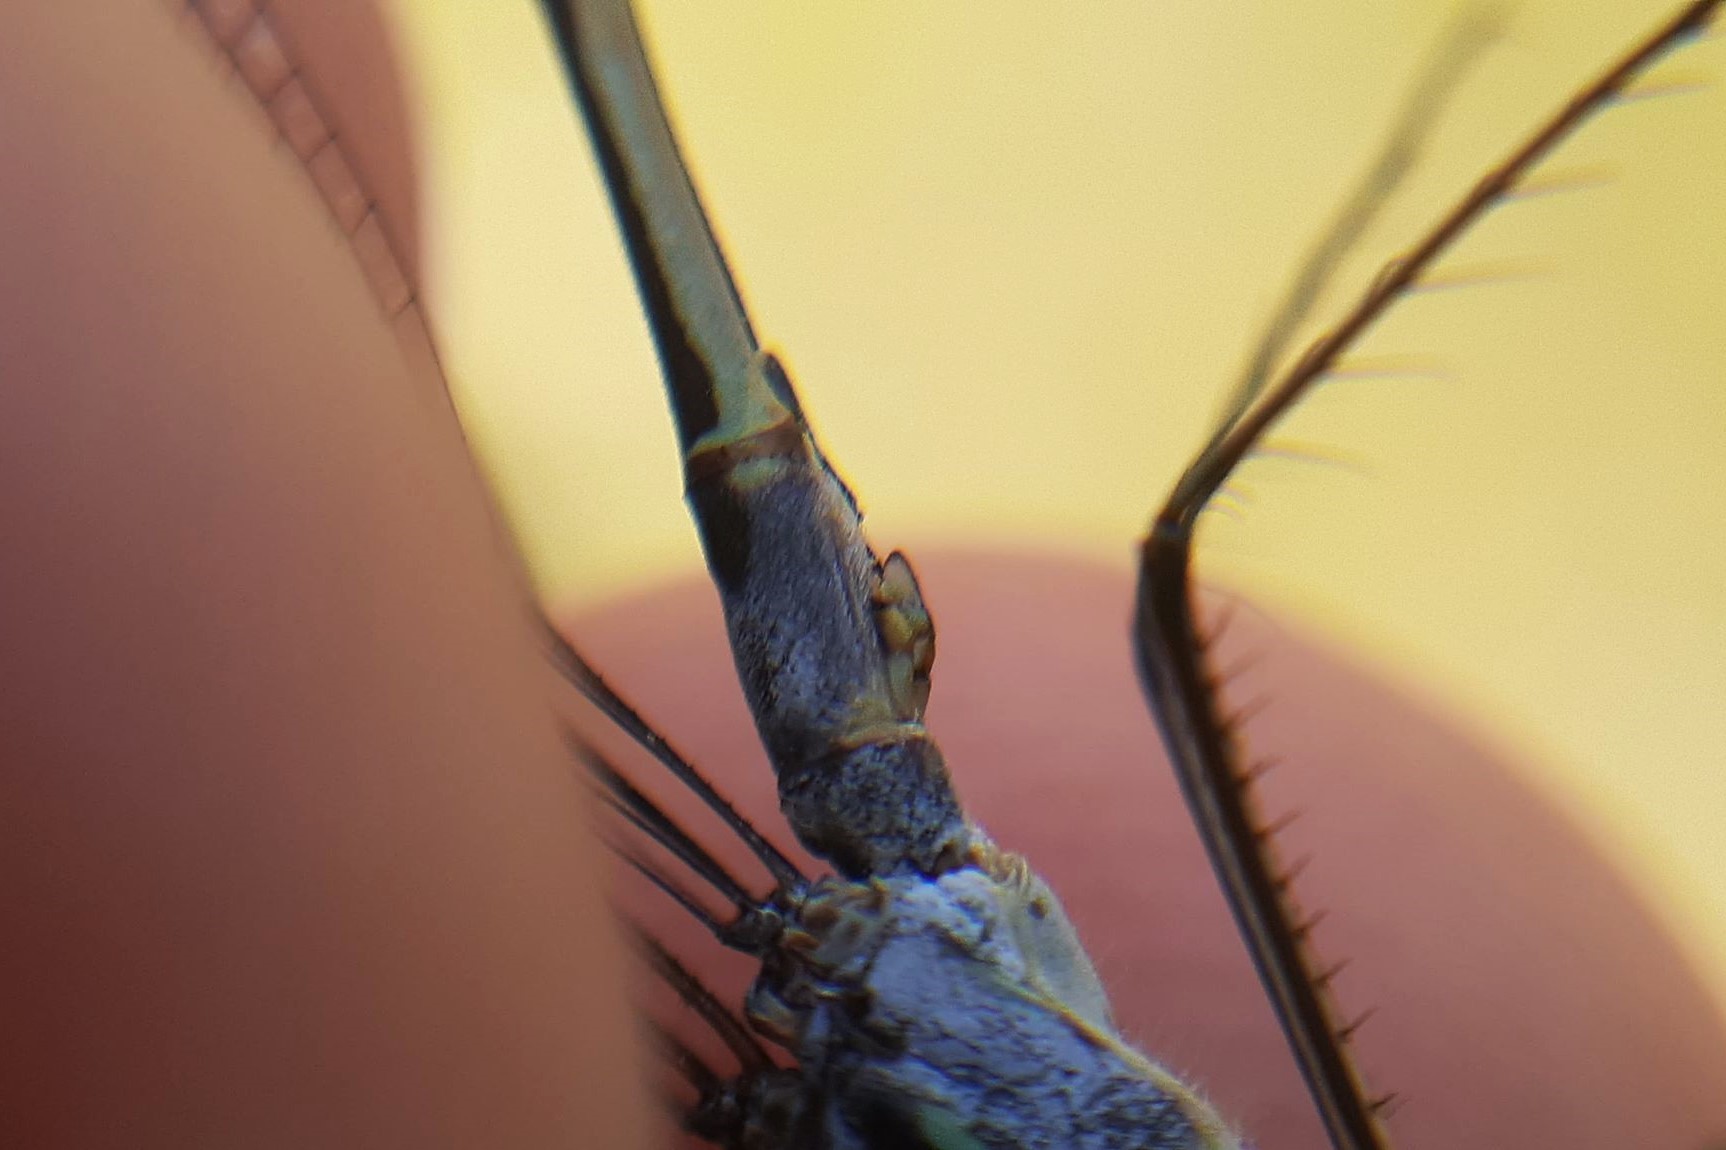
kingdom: Animalia
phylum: Arthropoda
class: Insecta
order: Odonata
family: Lestidae
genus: Lestes
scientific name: Lestes disjunctus
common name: Northern spreadwing
